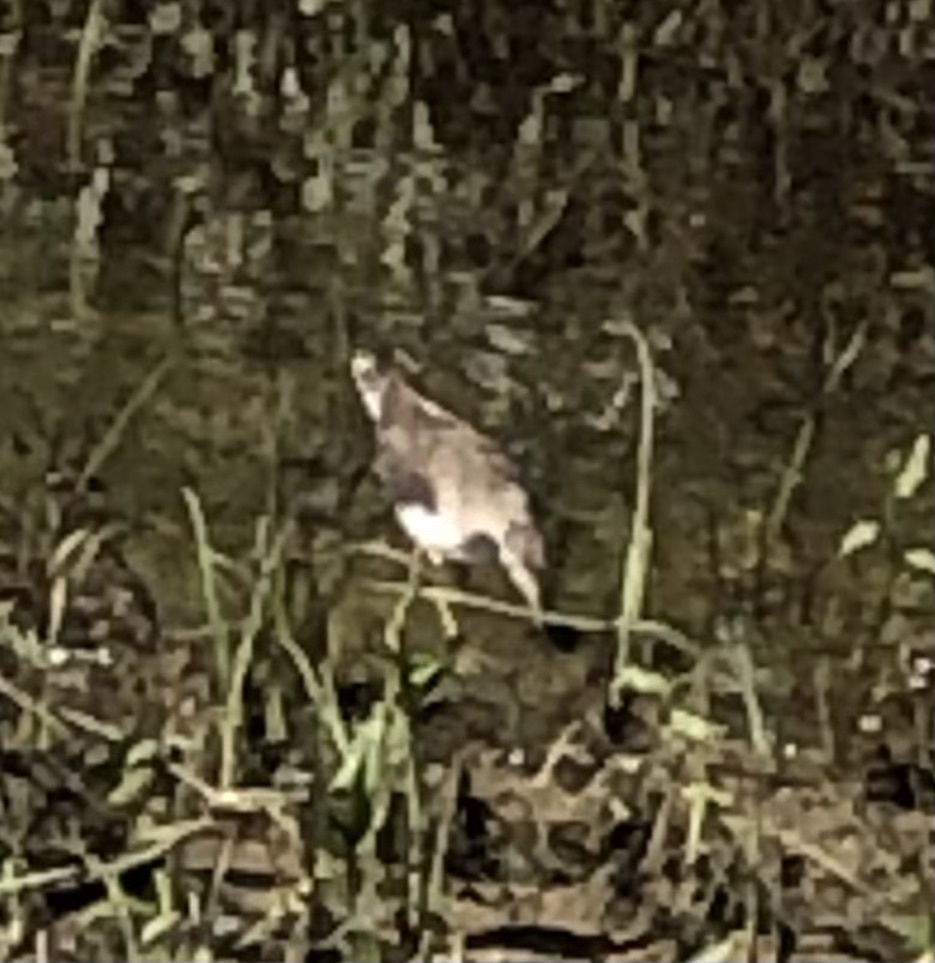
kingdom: Animalia
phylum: Chordata
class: Aves
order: Charadriiformes
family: Scolopacidae
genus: Tringa
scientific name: Tringa solitaria
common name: Solitary sandpiper
